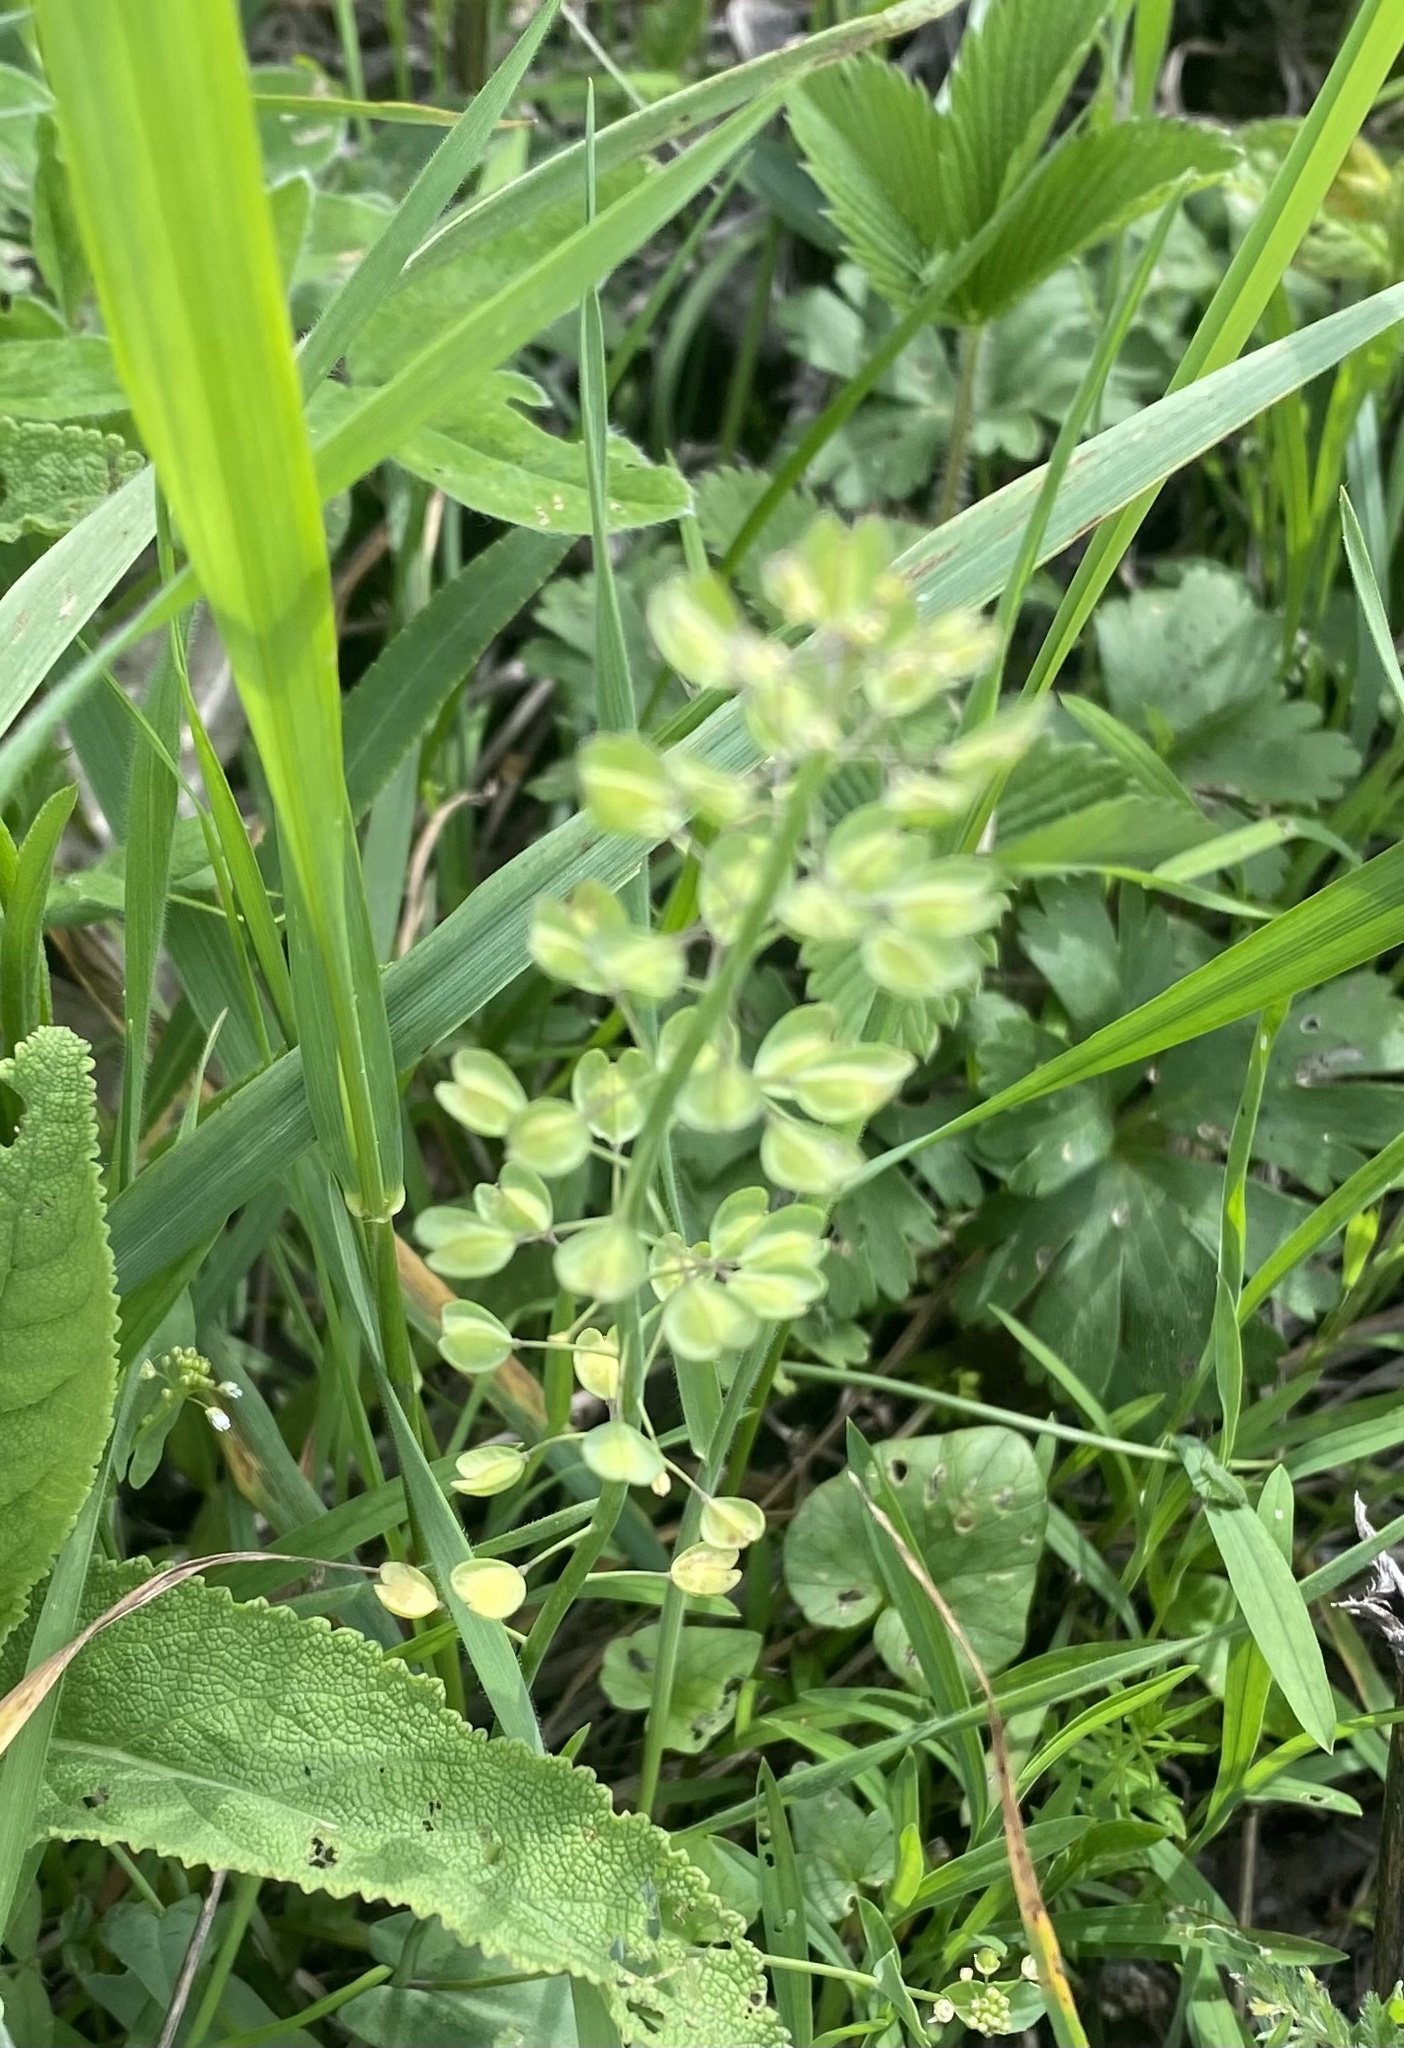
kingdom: Plantae
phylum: Tracheophyta
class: Magnoliopsida
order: Brassicales
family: Brassicaceae
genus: Noccaea
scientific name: Noccaea perfoliata
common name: Perfoliate pennycress
